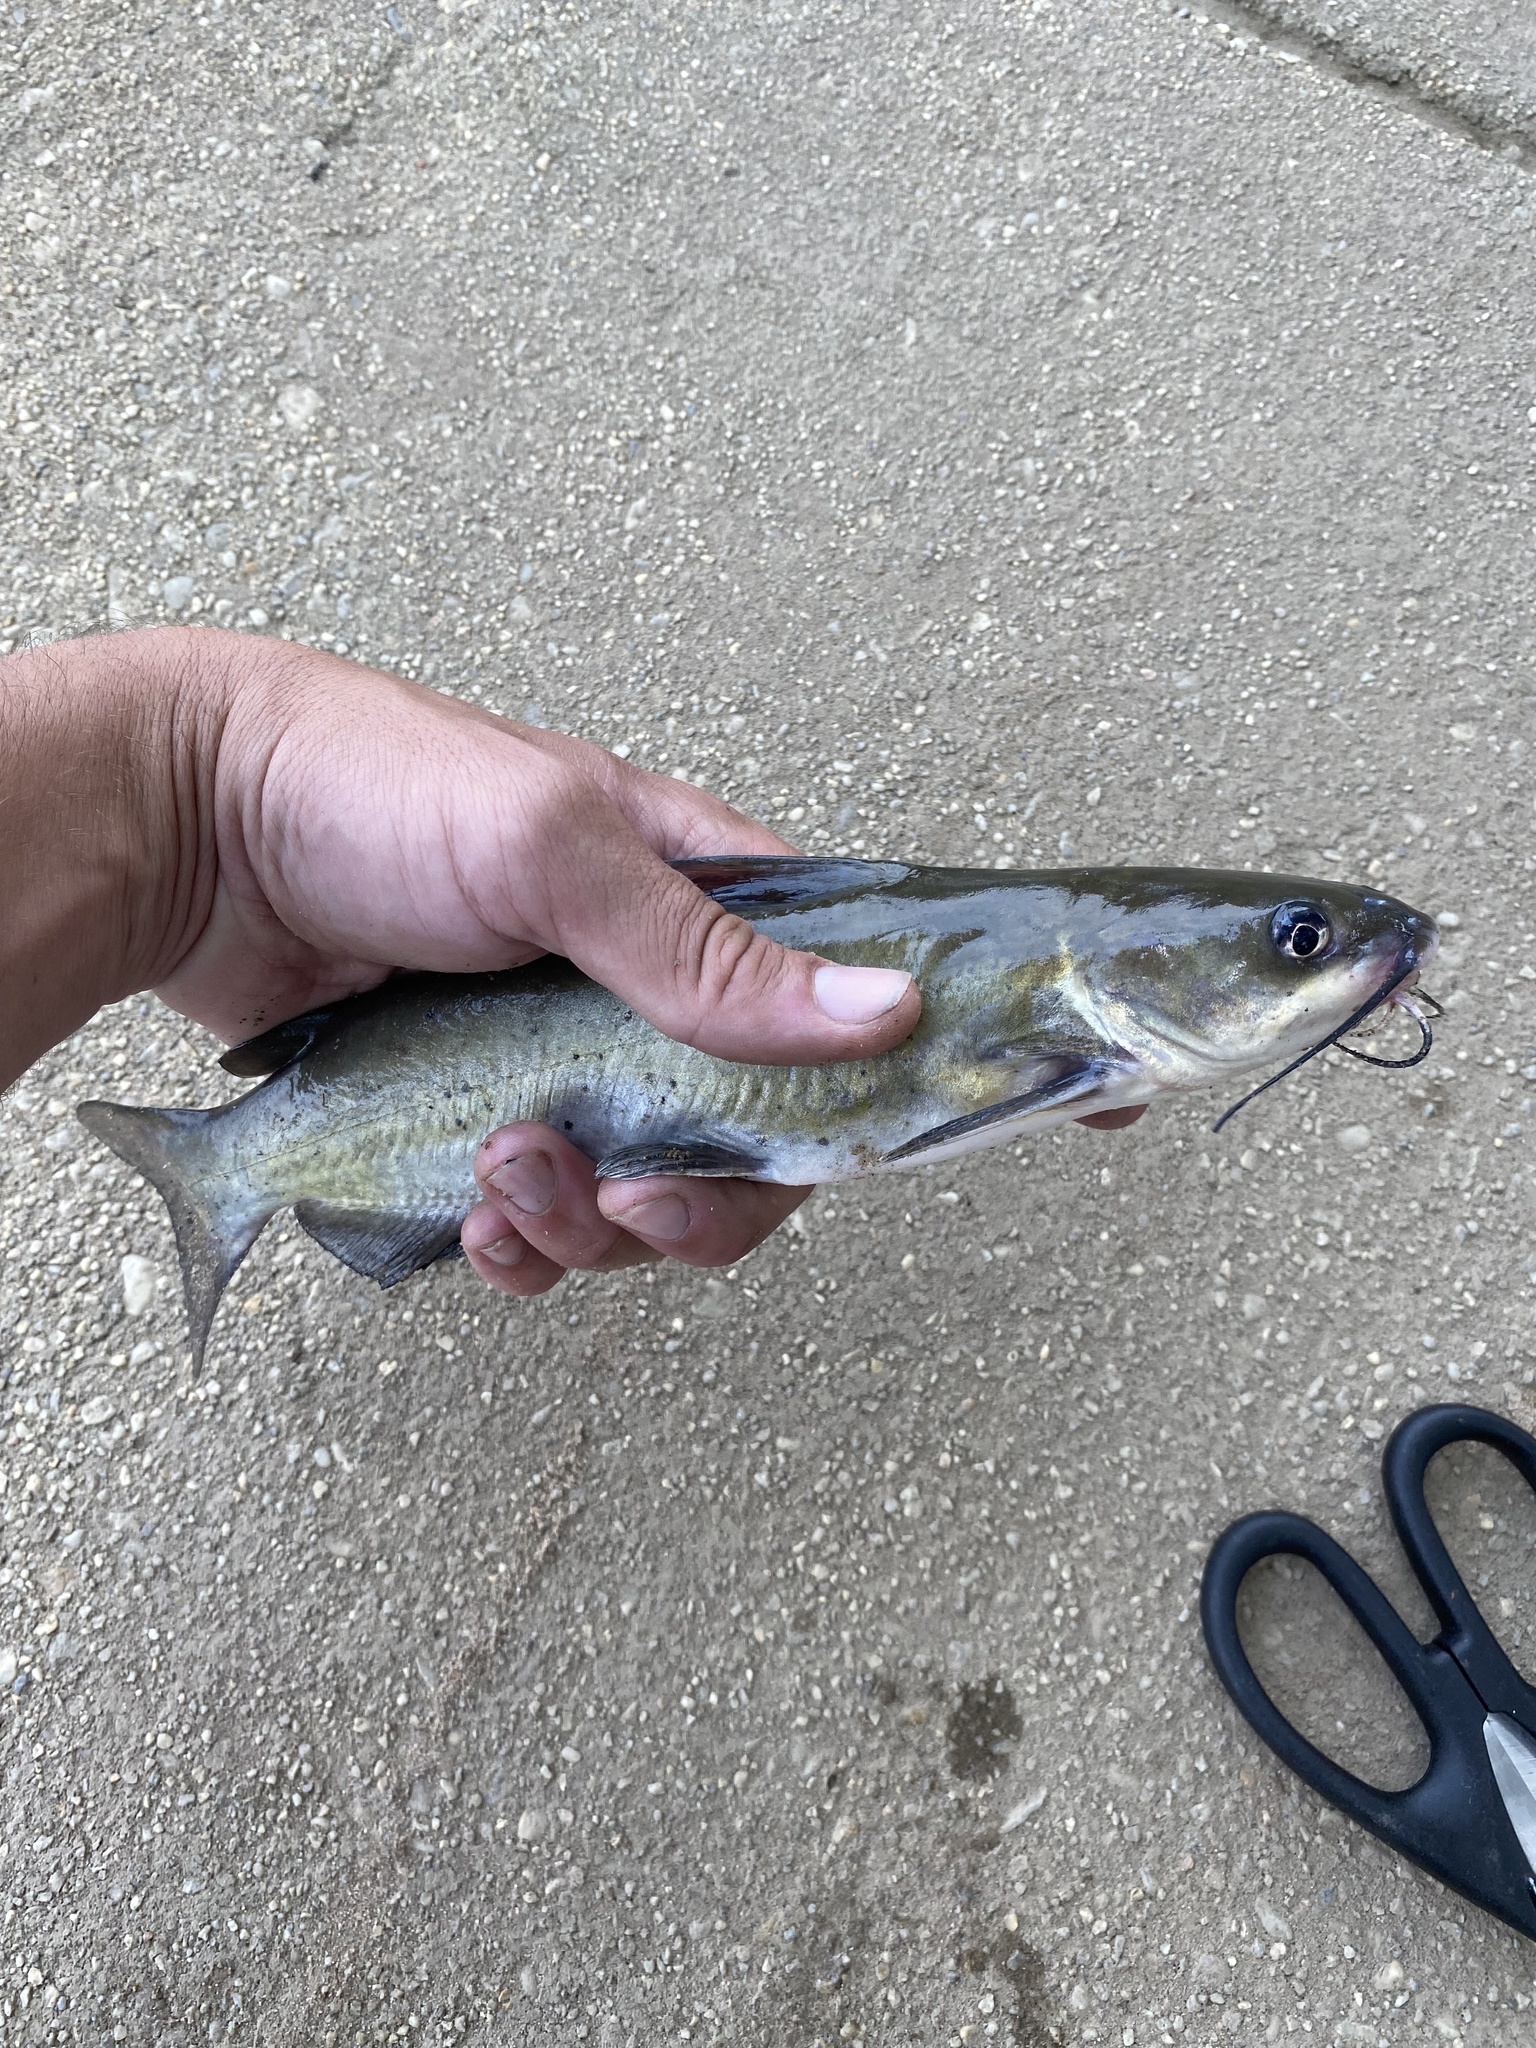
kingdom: Animalia
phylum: Chordata
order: Siluriformes
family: Ictaluridae
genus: Ictalurus
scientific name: Ictalurus punctatus
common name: Channel catfish
